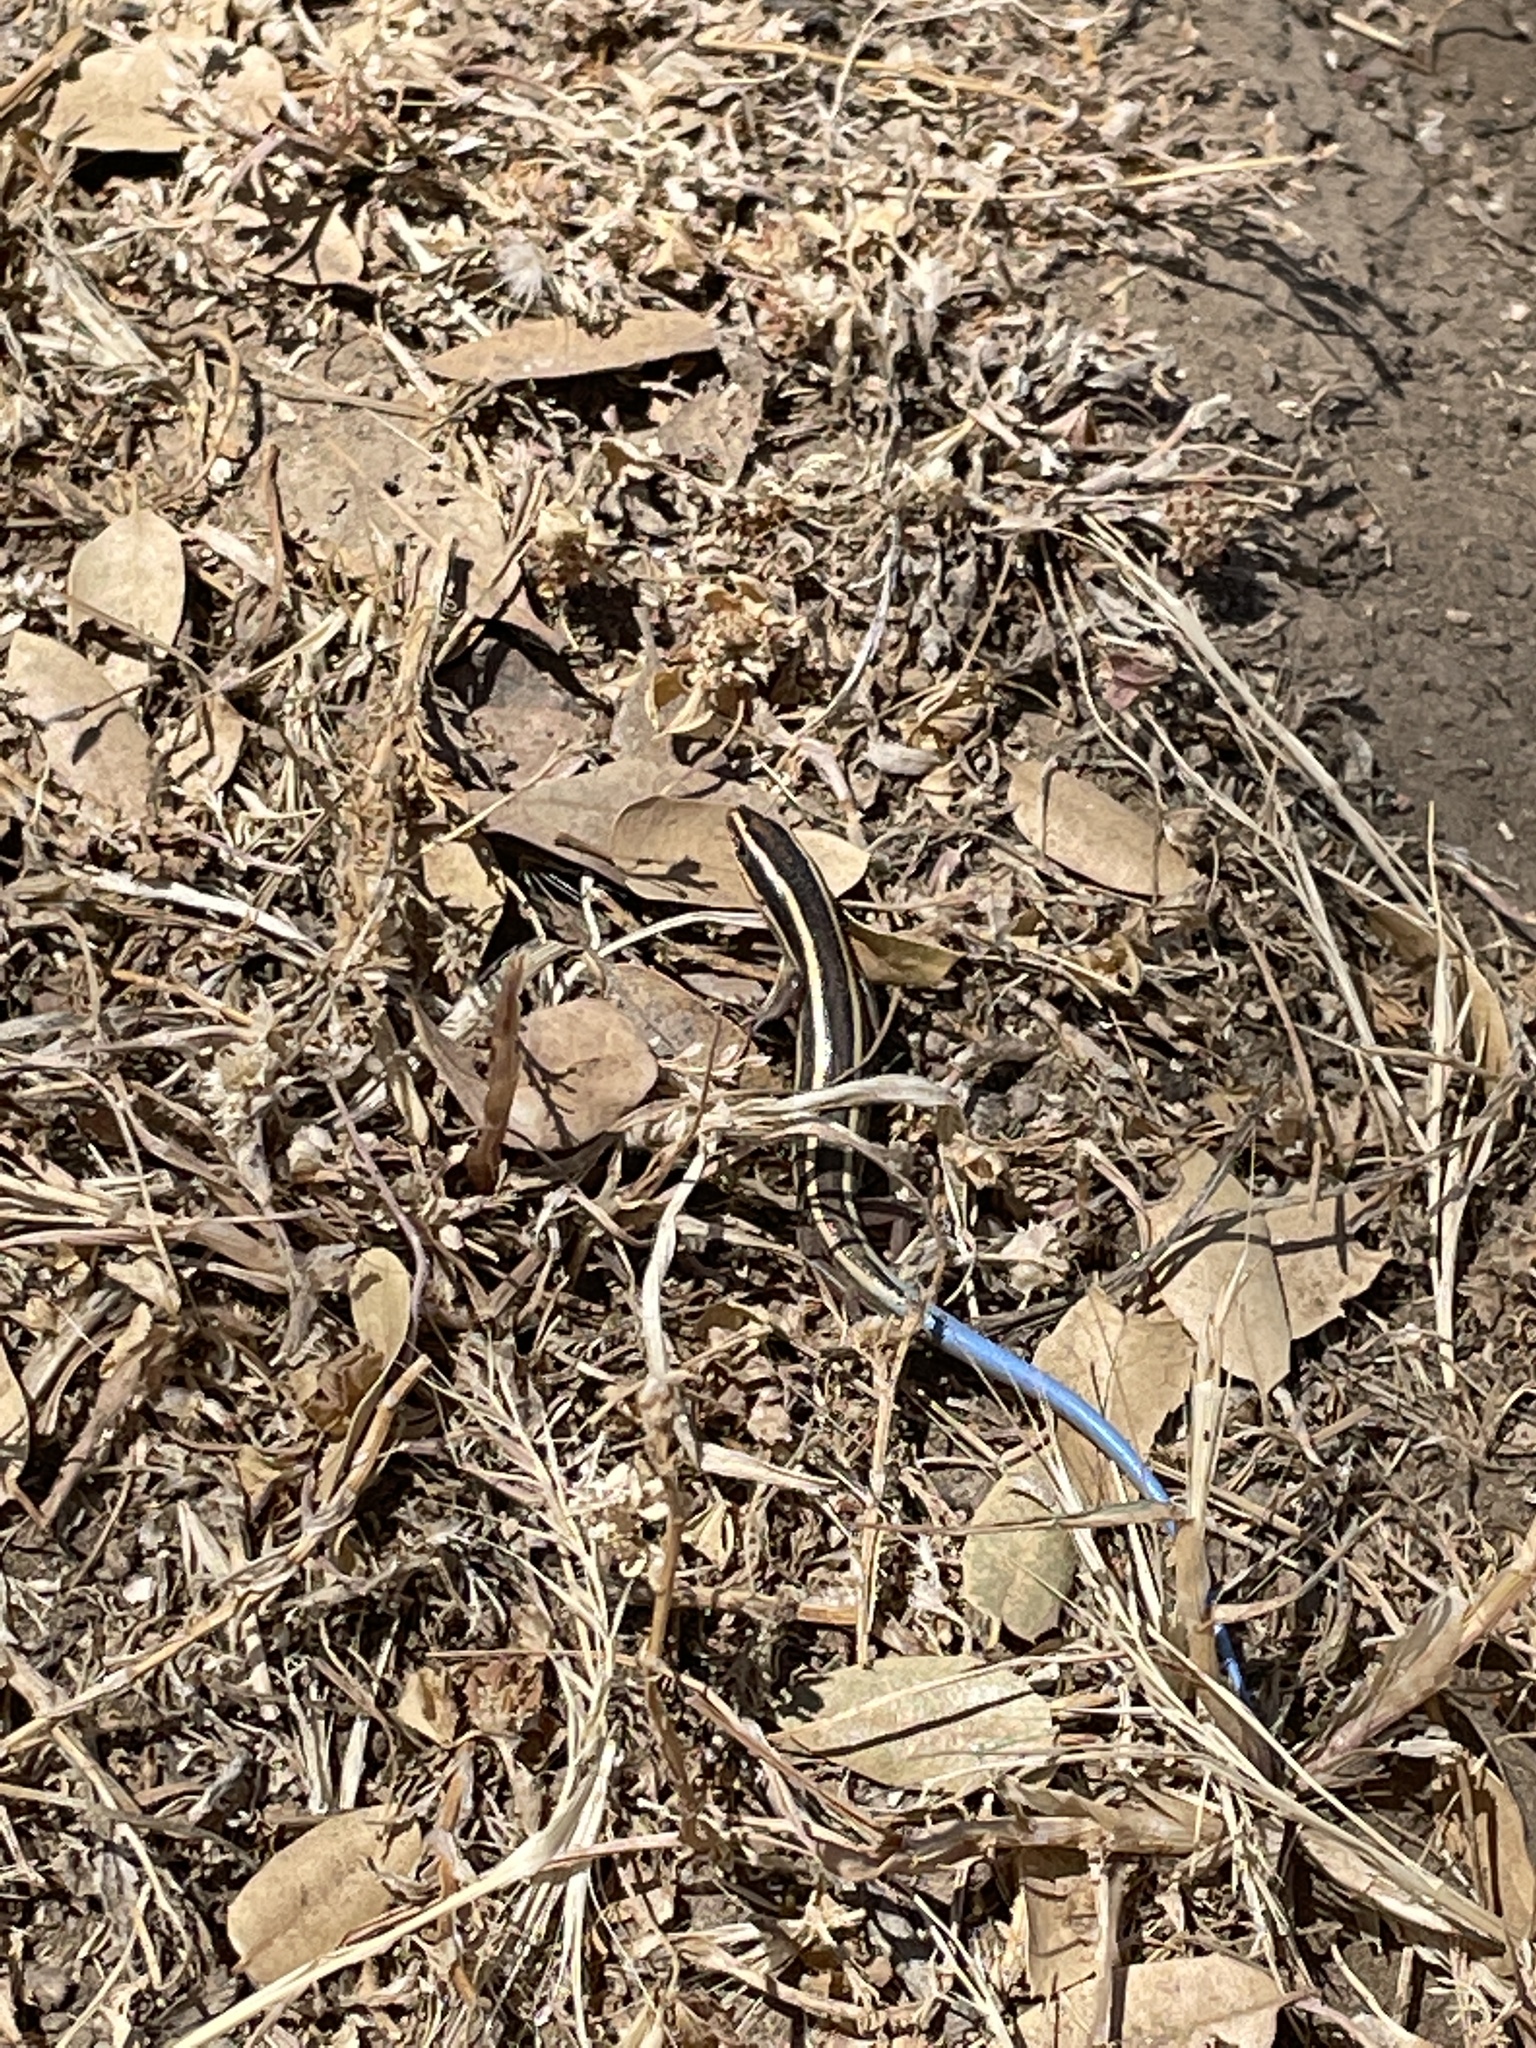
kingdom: Animalia
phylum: Chordata
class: Squamata
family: Scincidae
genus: Plestiodon
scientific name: Plestiodon gilberti
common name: Gilbert's skink
